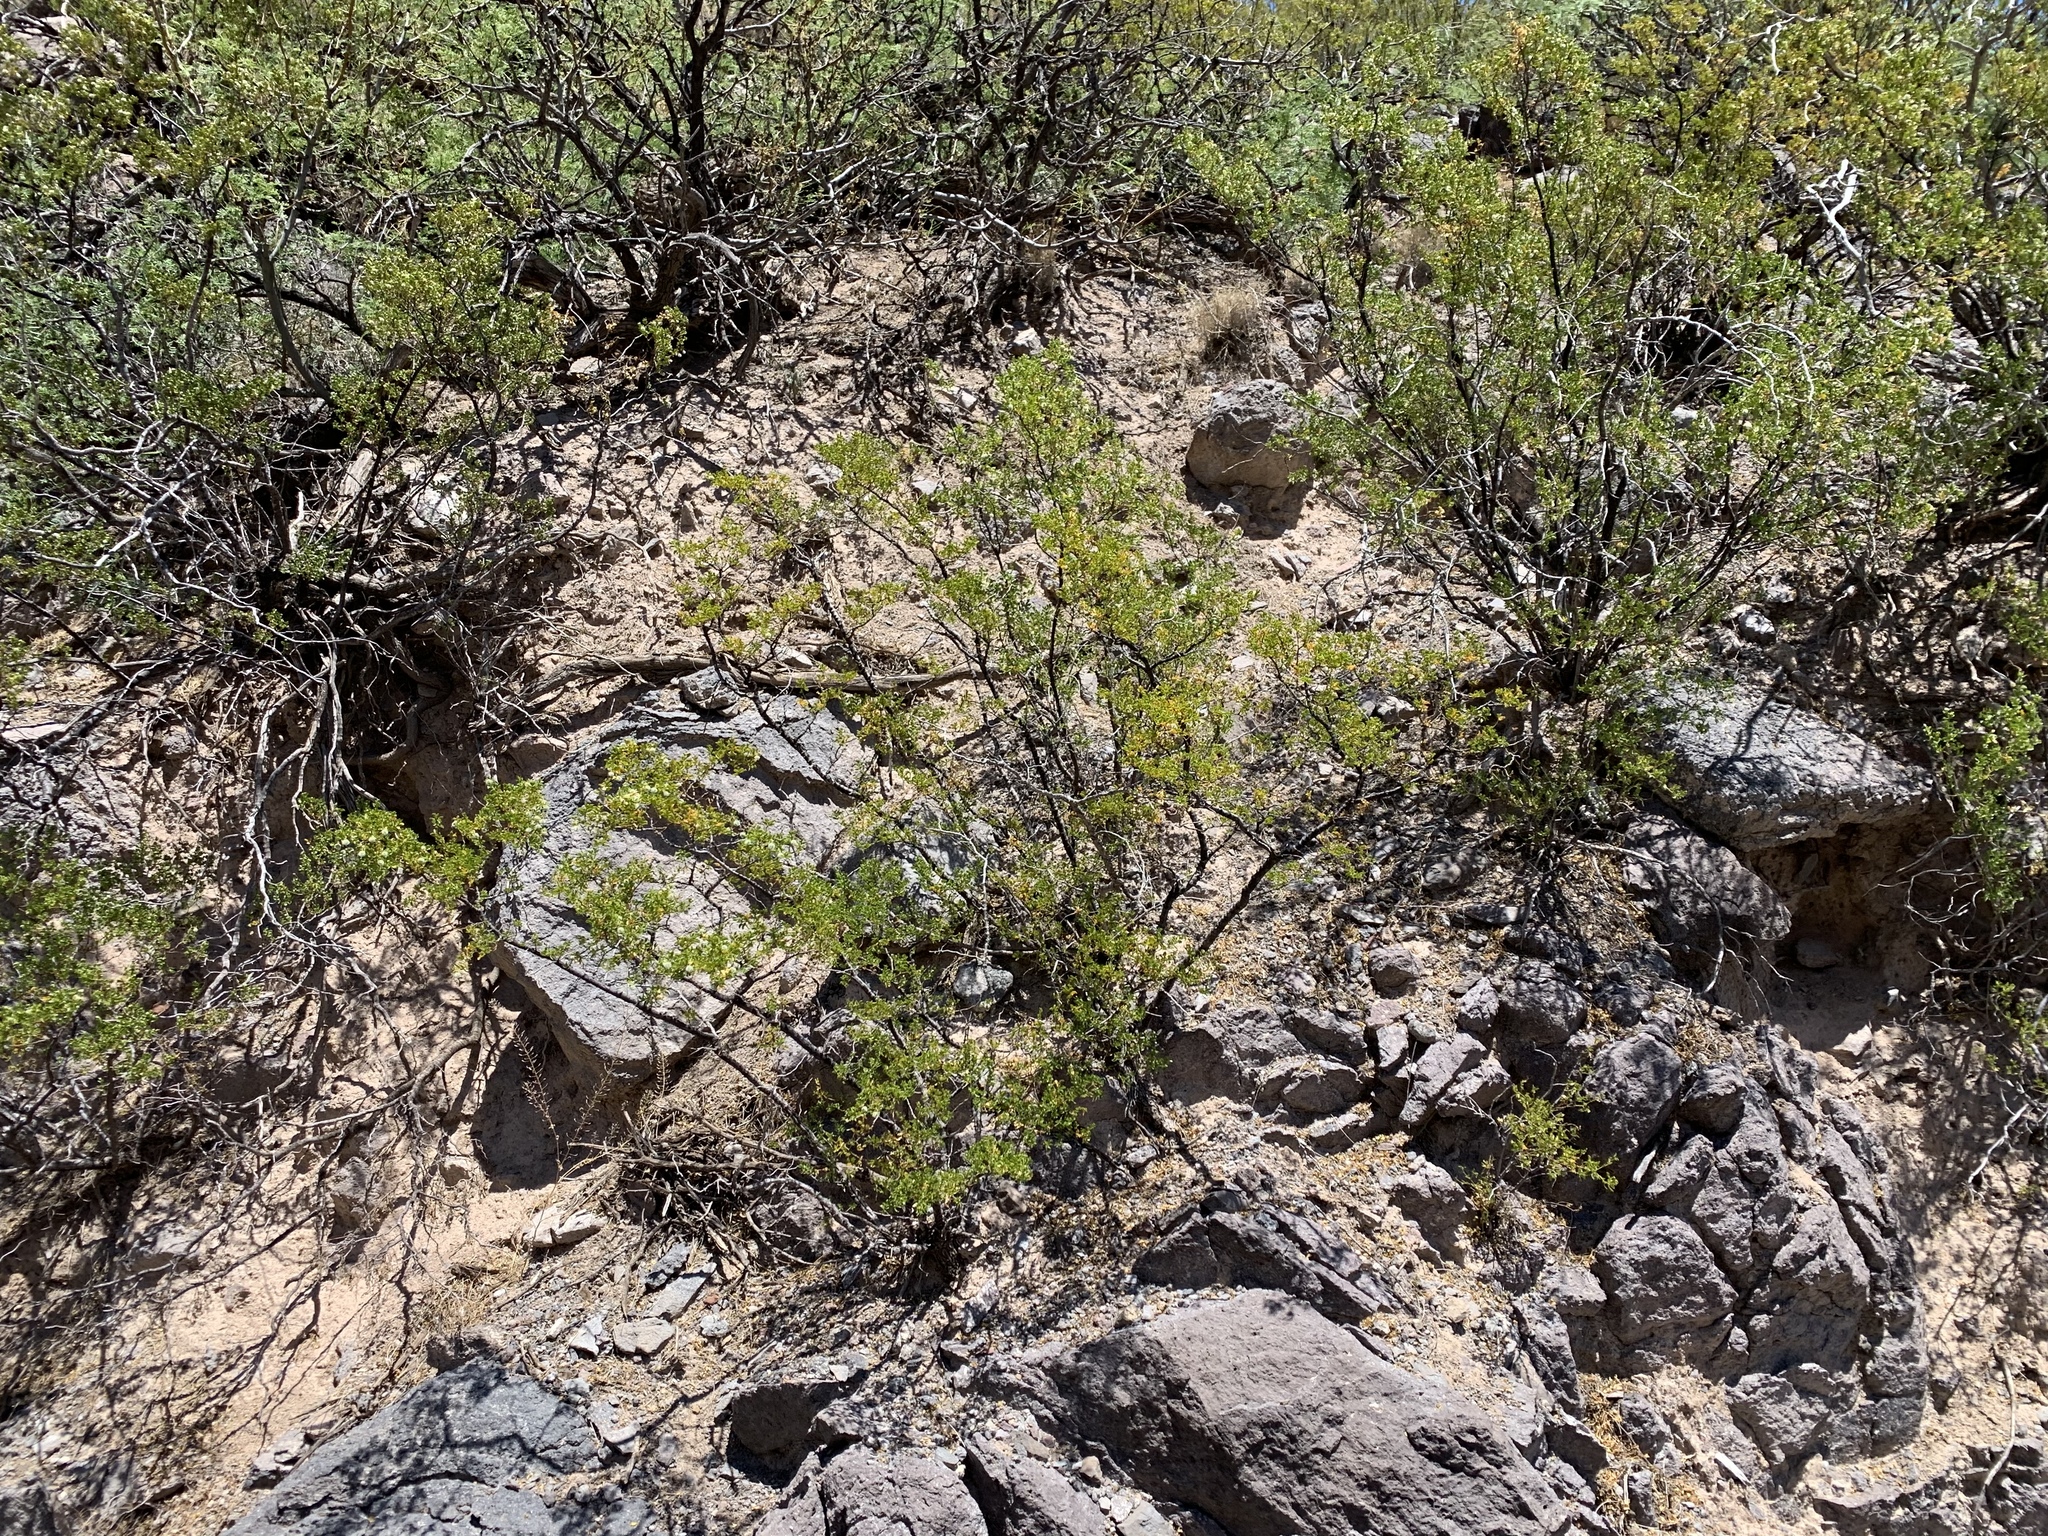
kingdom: Plantae
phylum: Tracheophyta
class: Magnoliopsida
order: Zygophyllales
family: Zygophyllaceae
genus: Larrea
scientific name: Larrea tridentata
